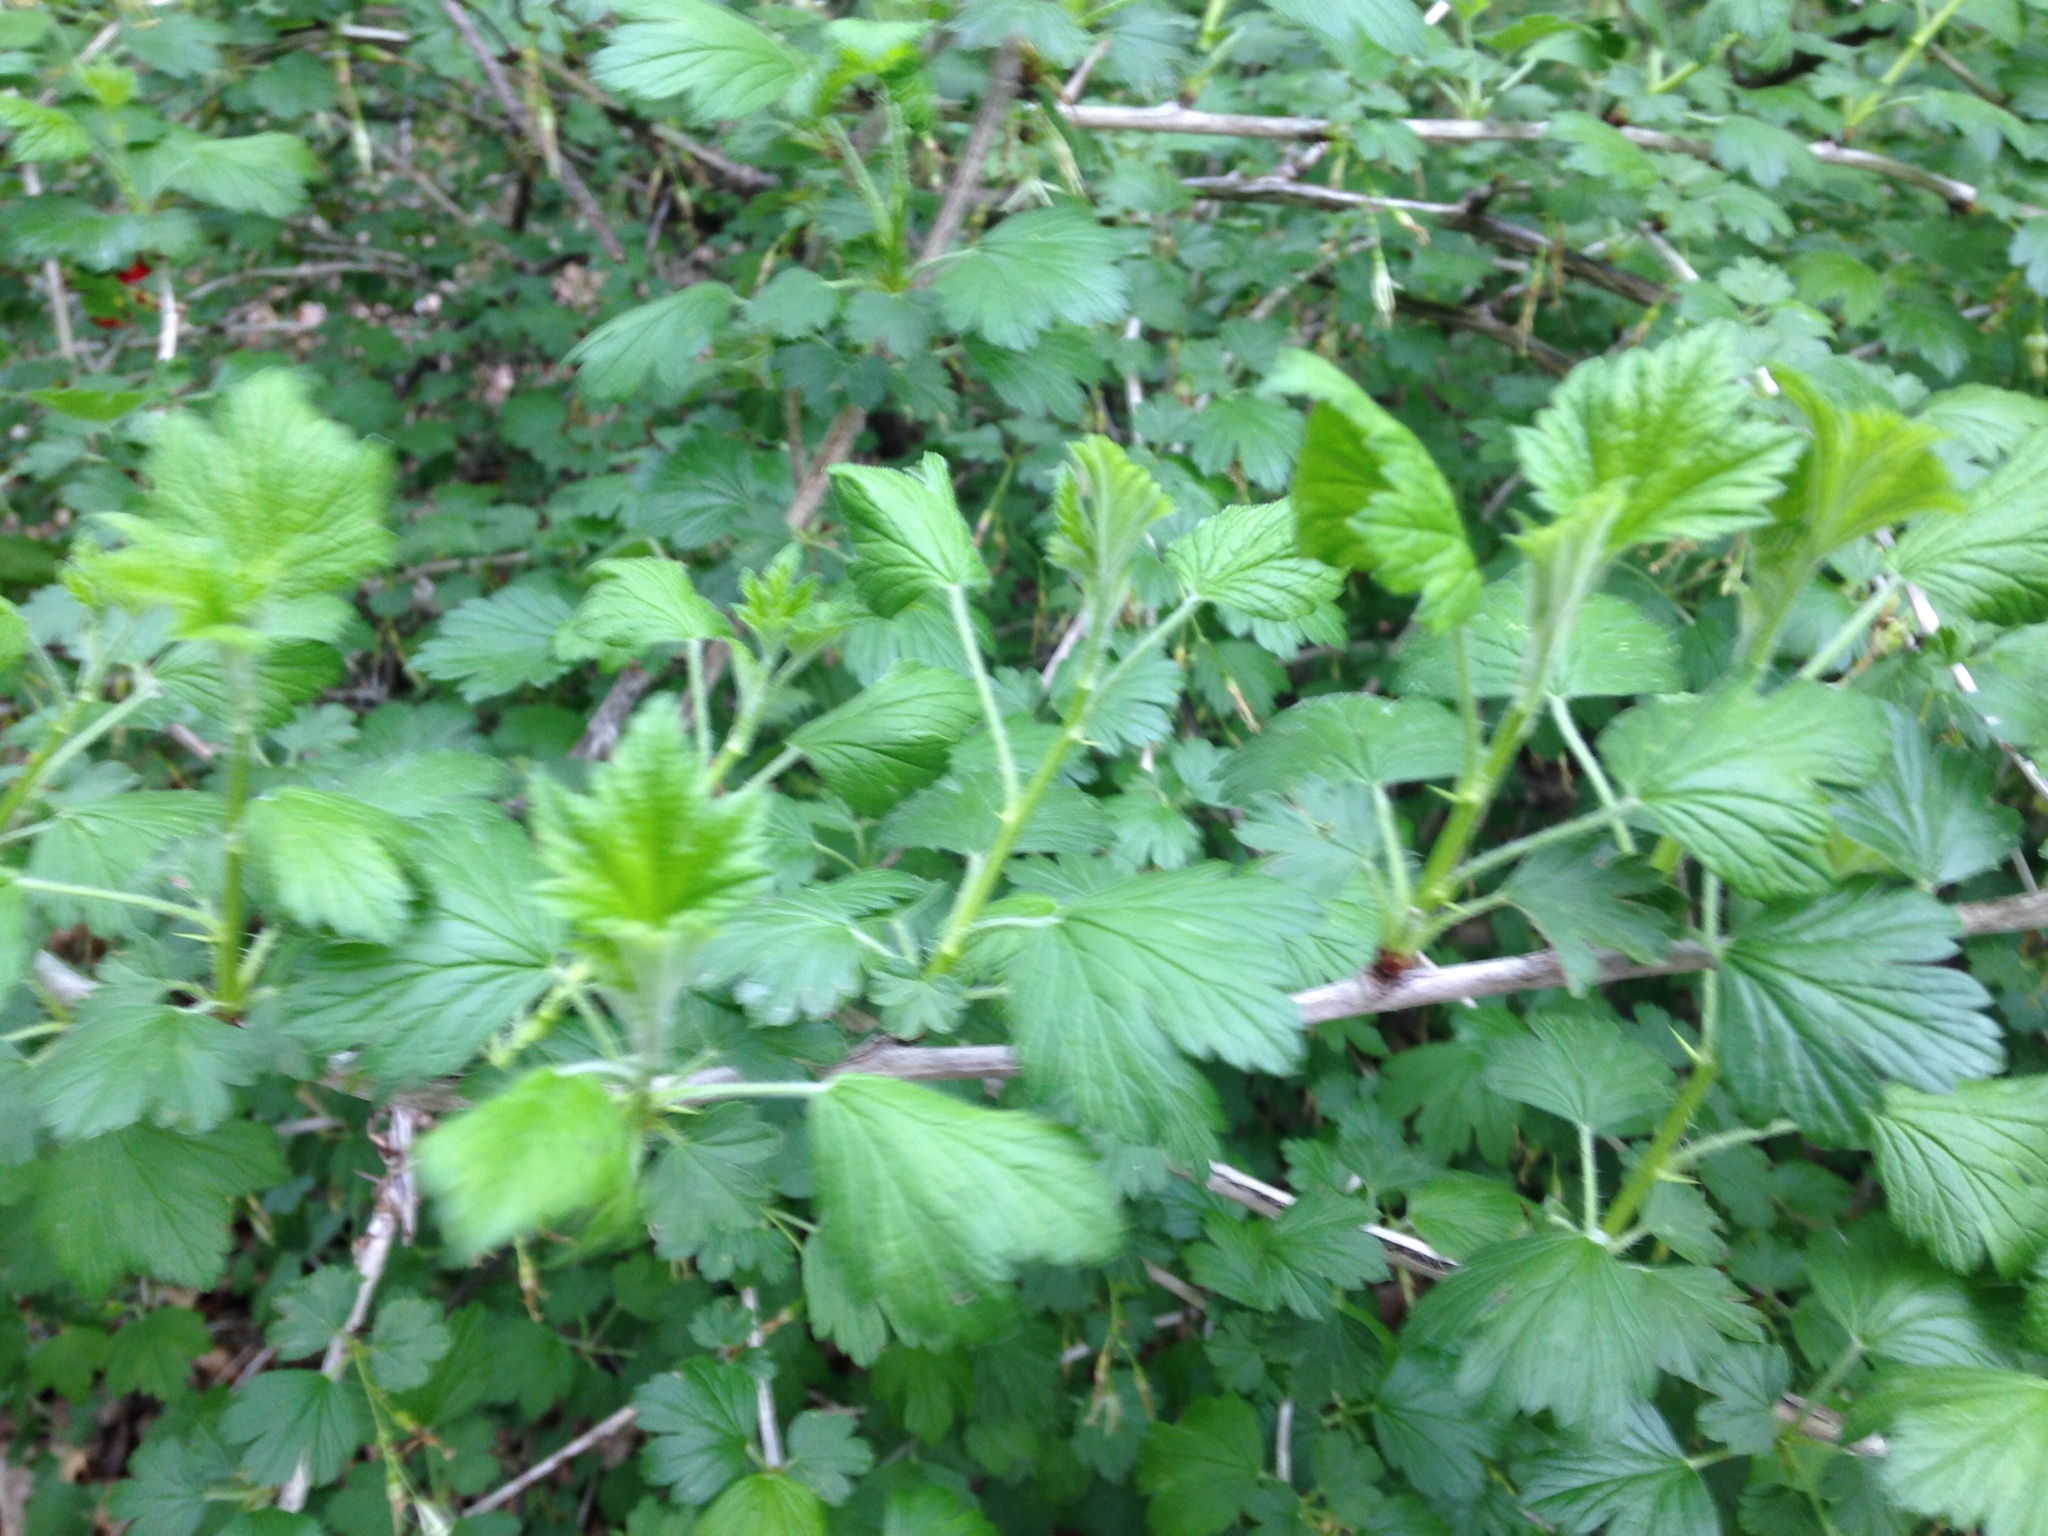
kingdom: Plantae
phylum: Tracheophyta
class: Magnoliopsida
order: Saxifragales
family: Grossulariaceae
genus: Ribes
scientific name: Ribes missouriense
